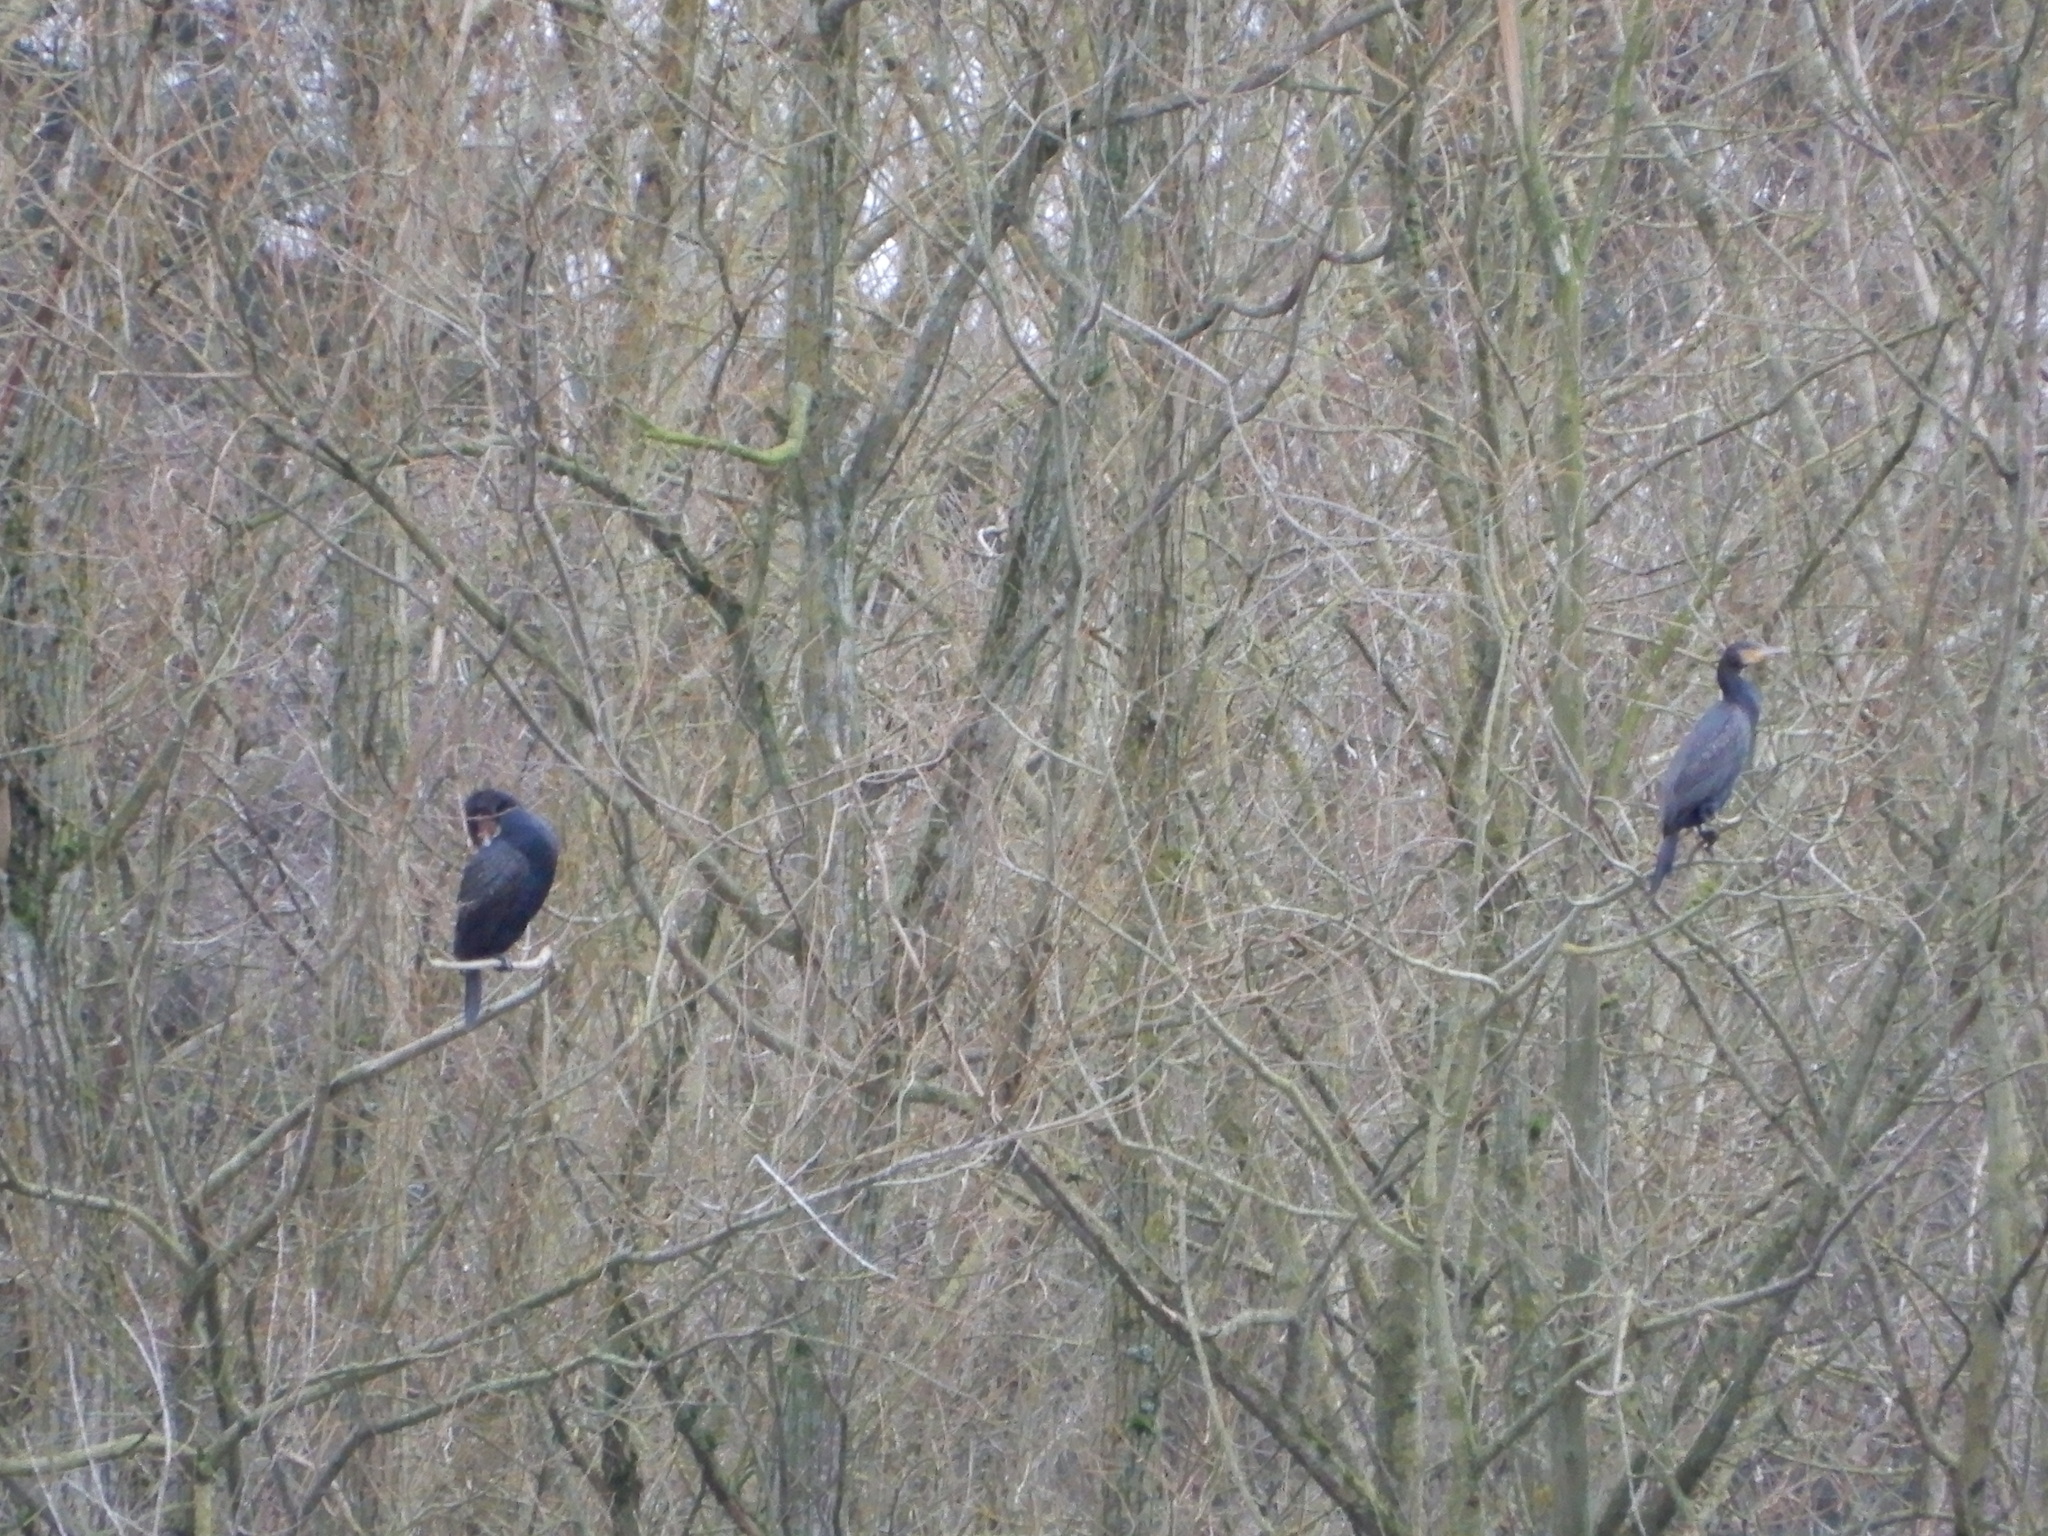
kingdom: Animalia
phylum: Chordata
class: Aves
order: Suliformes
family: Phalacrocoracidae
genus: Phalacrocorax
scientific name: Phalacrocorax carbo
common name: Great cormorant
